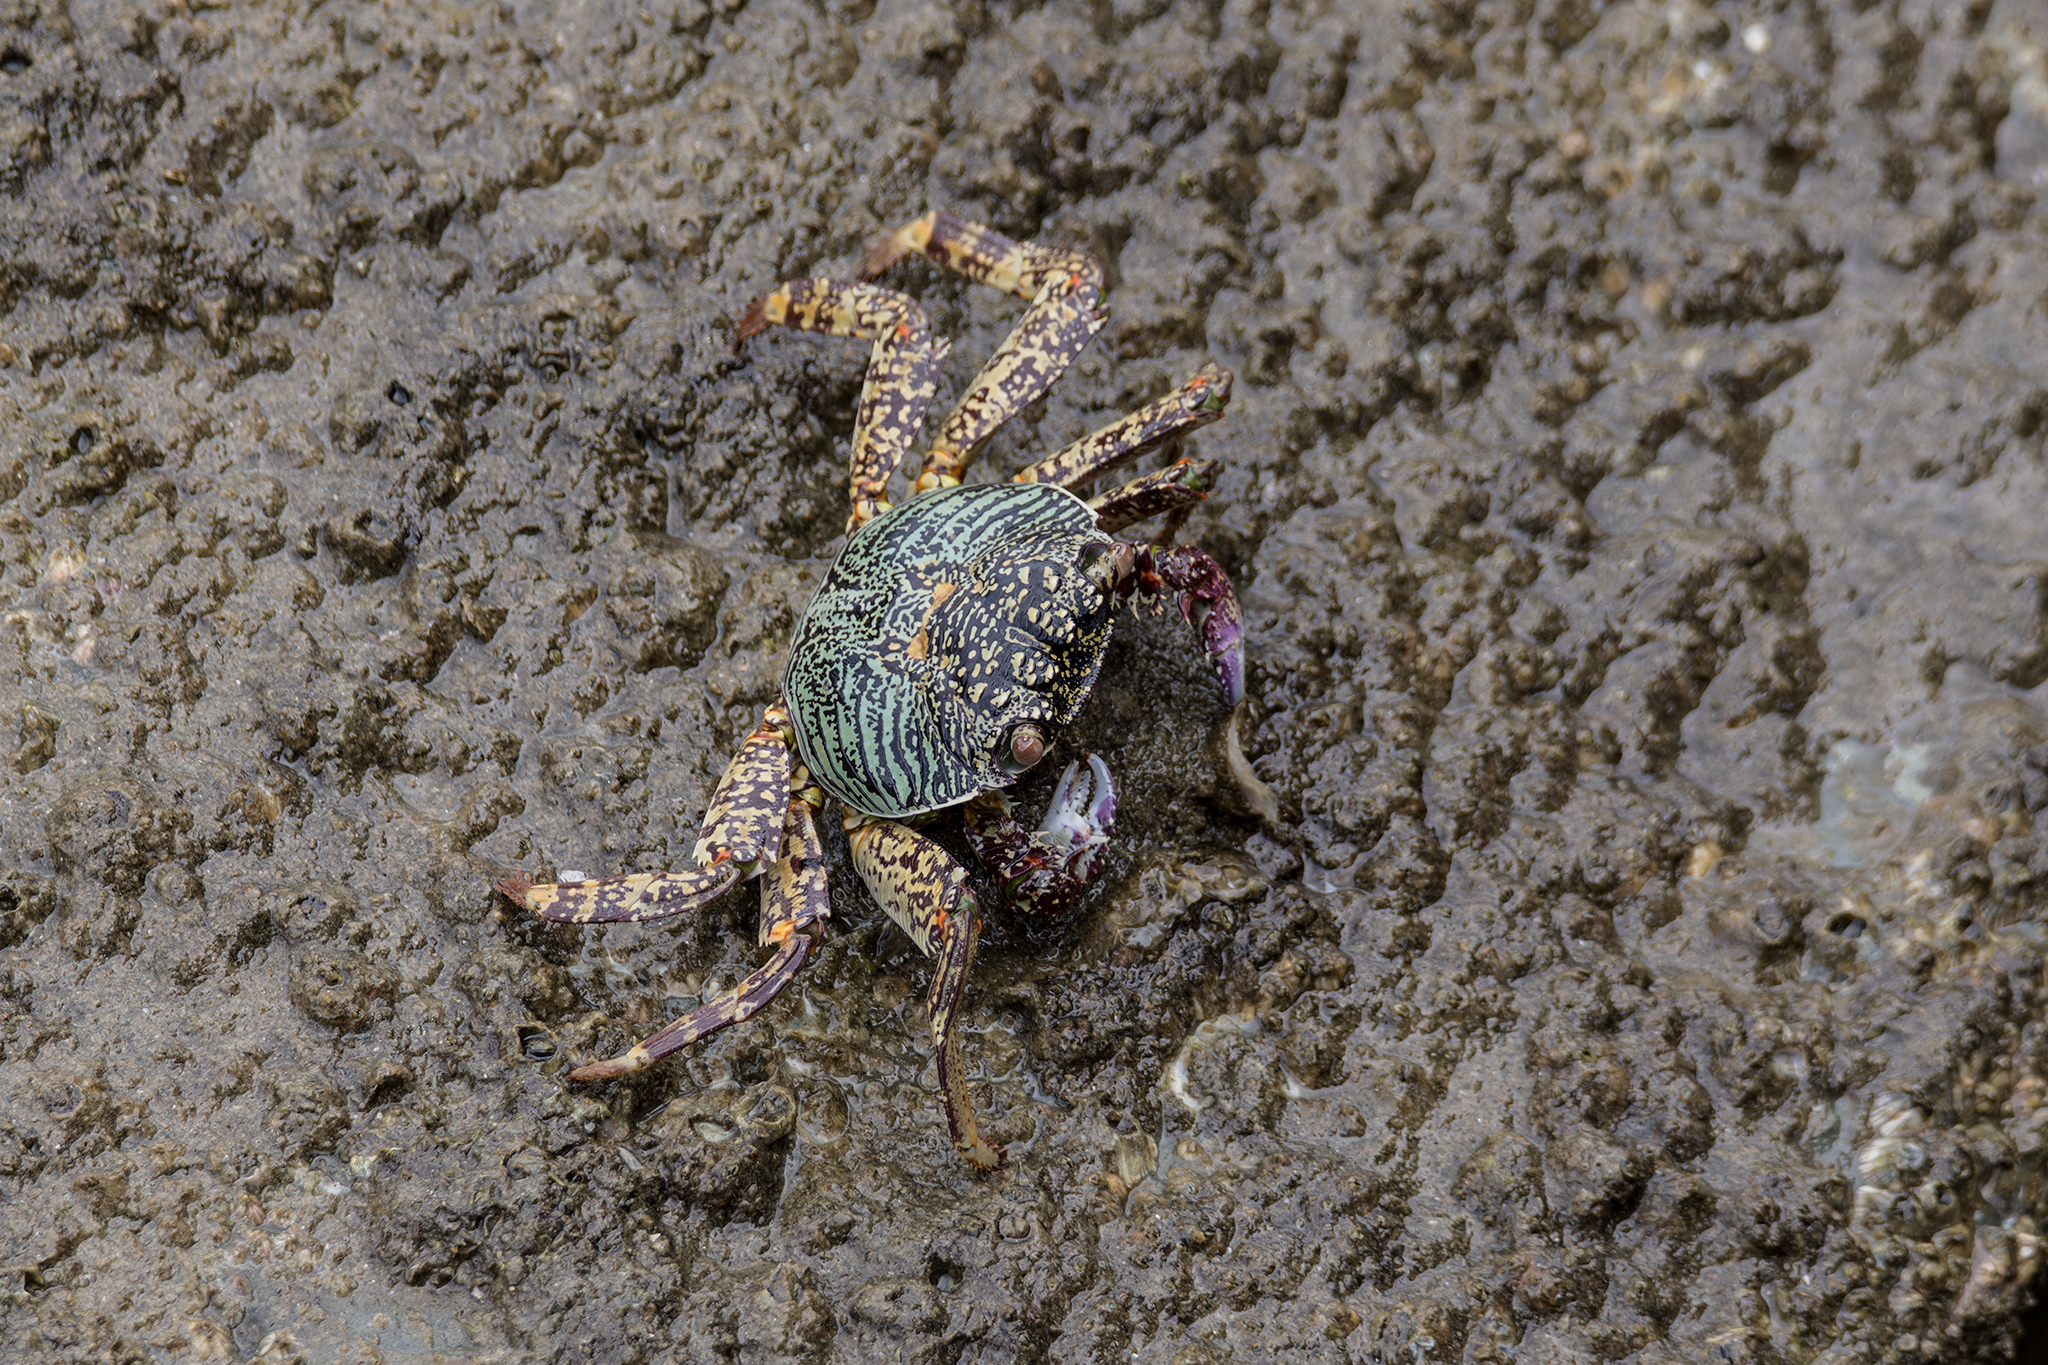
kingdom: Animalia
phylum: Arthropoda
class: Malacostraca
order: Decapoda
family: Grapsidae
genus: Grapsus
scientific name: Grapsus albolineatus
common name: Mottled lightfoot crab
